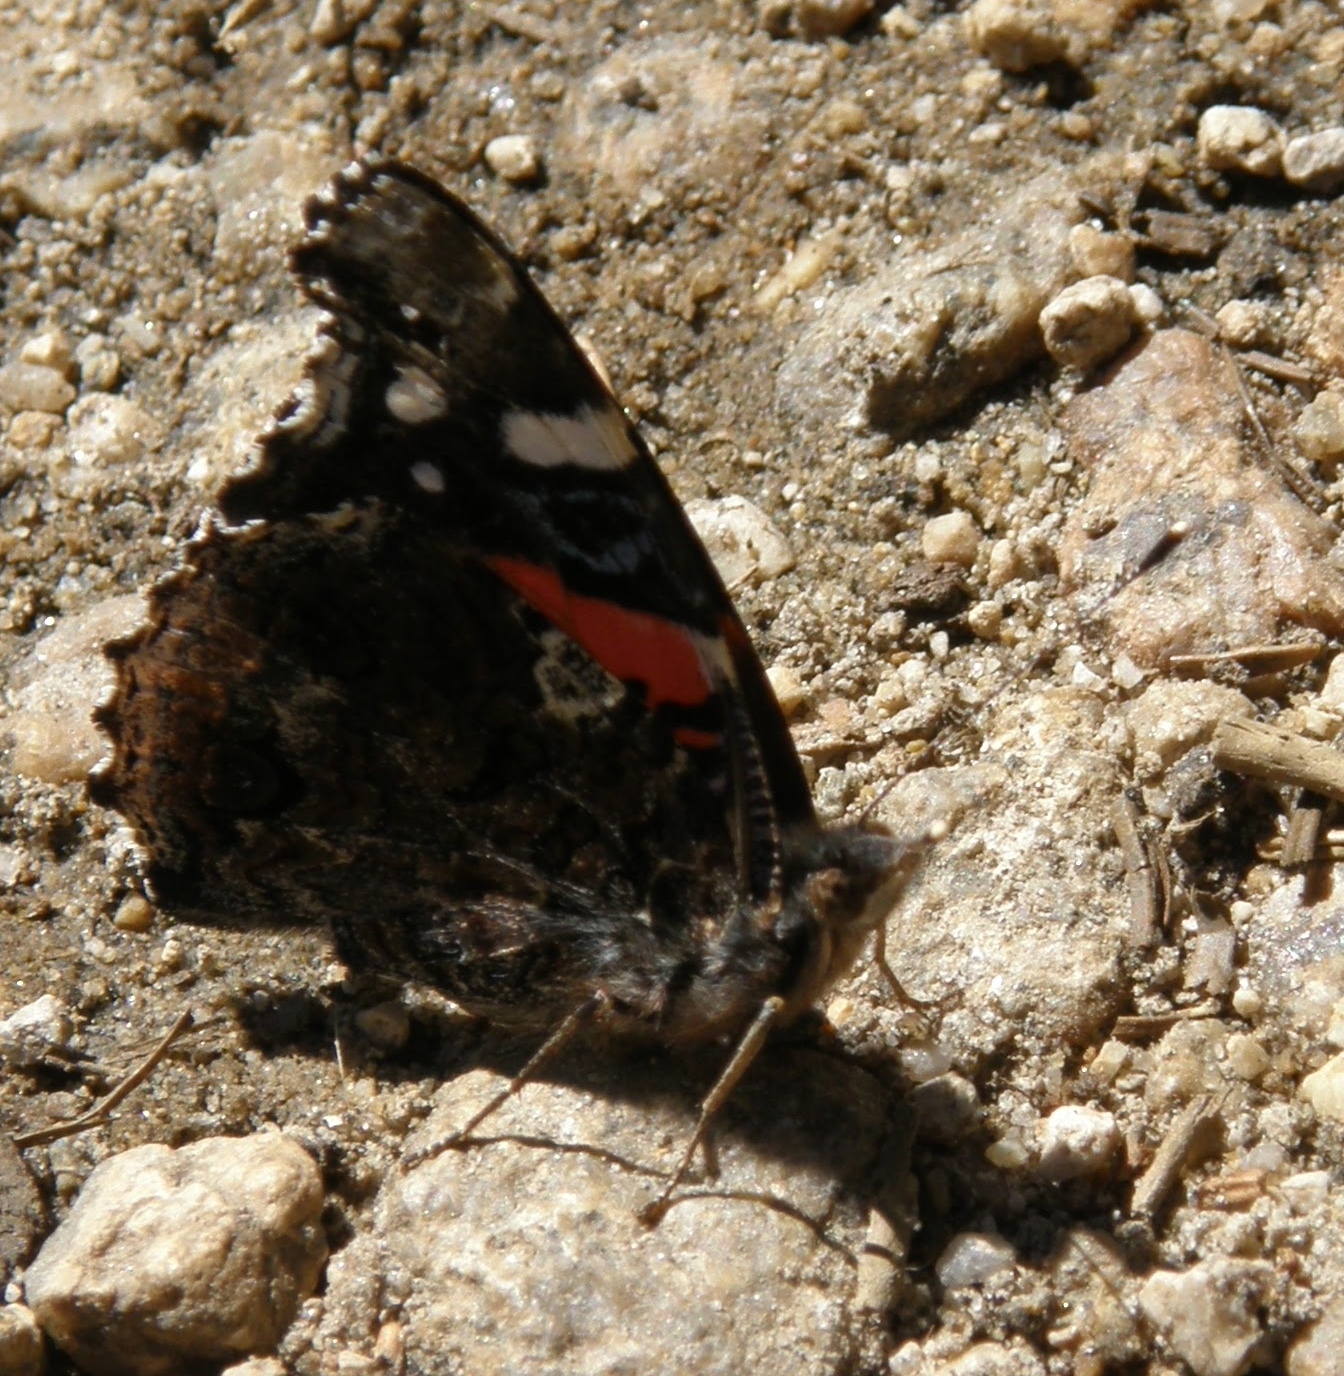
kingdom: Animalia
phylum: Arthropoda
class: Insecta
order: Lepidoptera
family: Nymphalidae
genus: Vanessa
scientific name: Vanessa atalanta
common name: Red admiral
